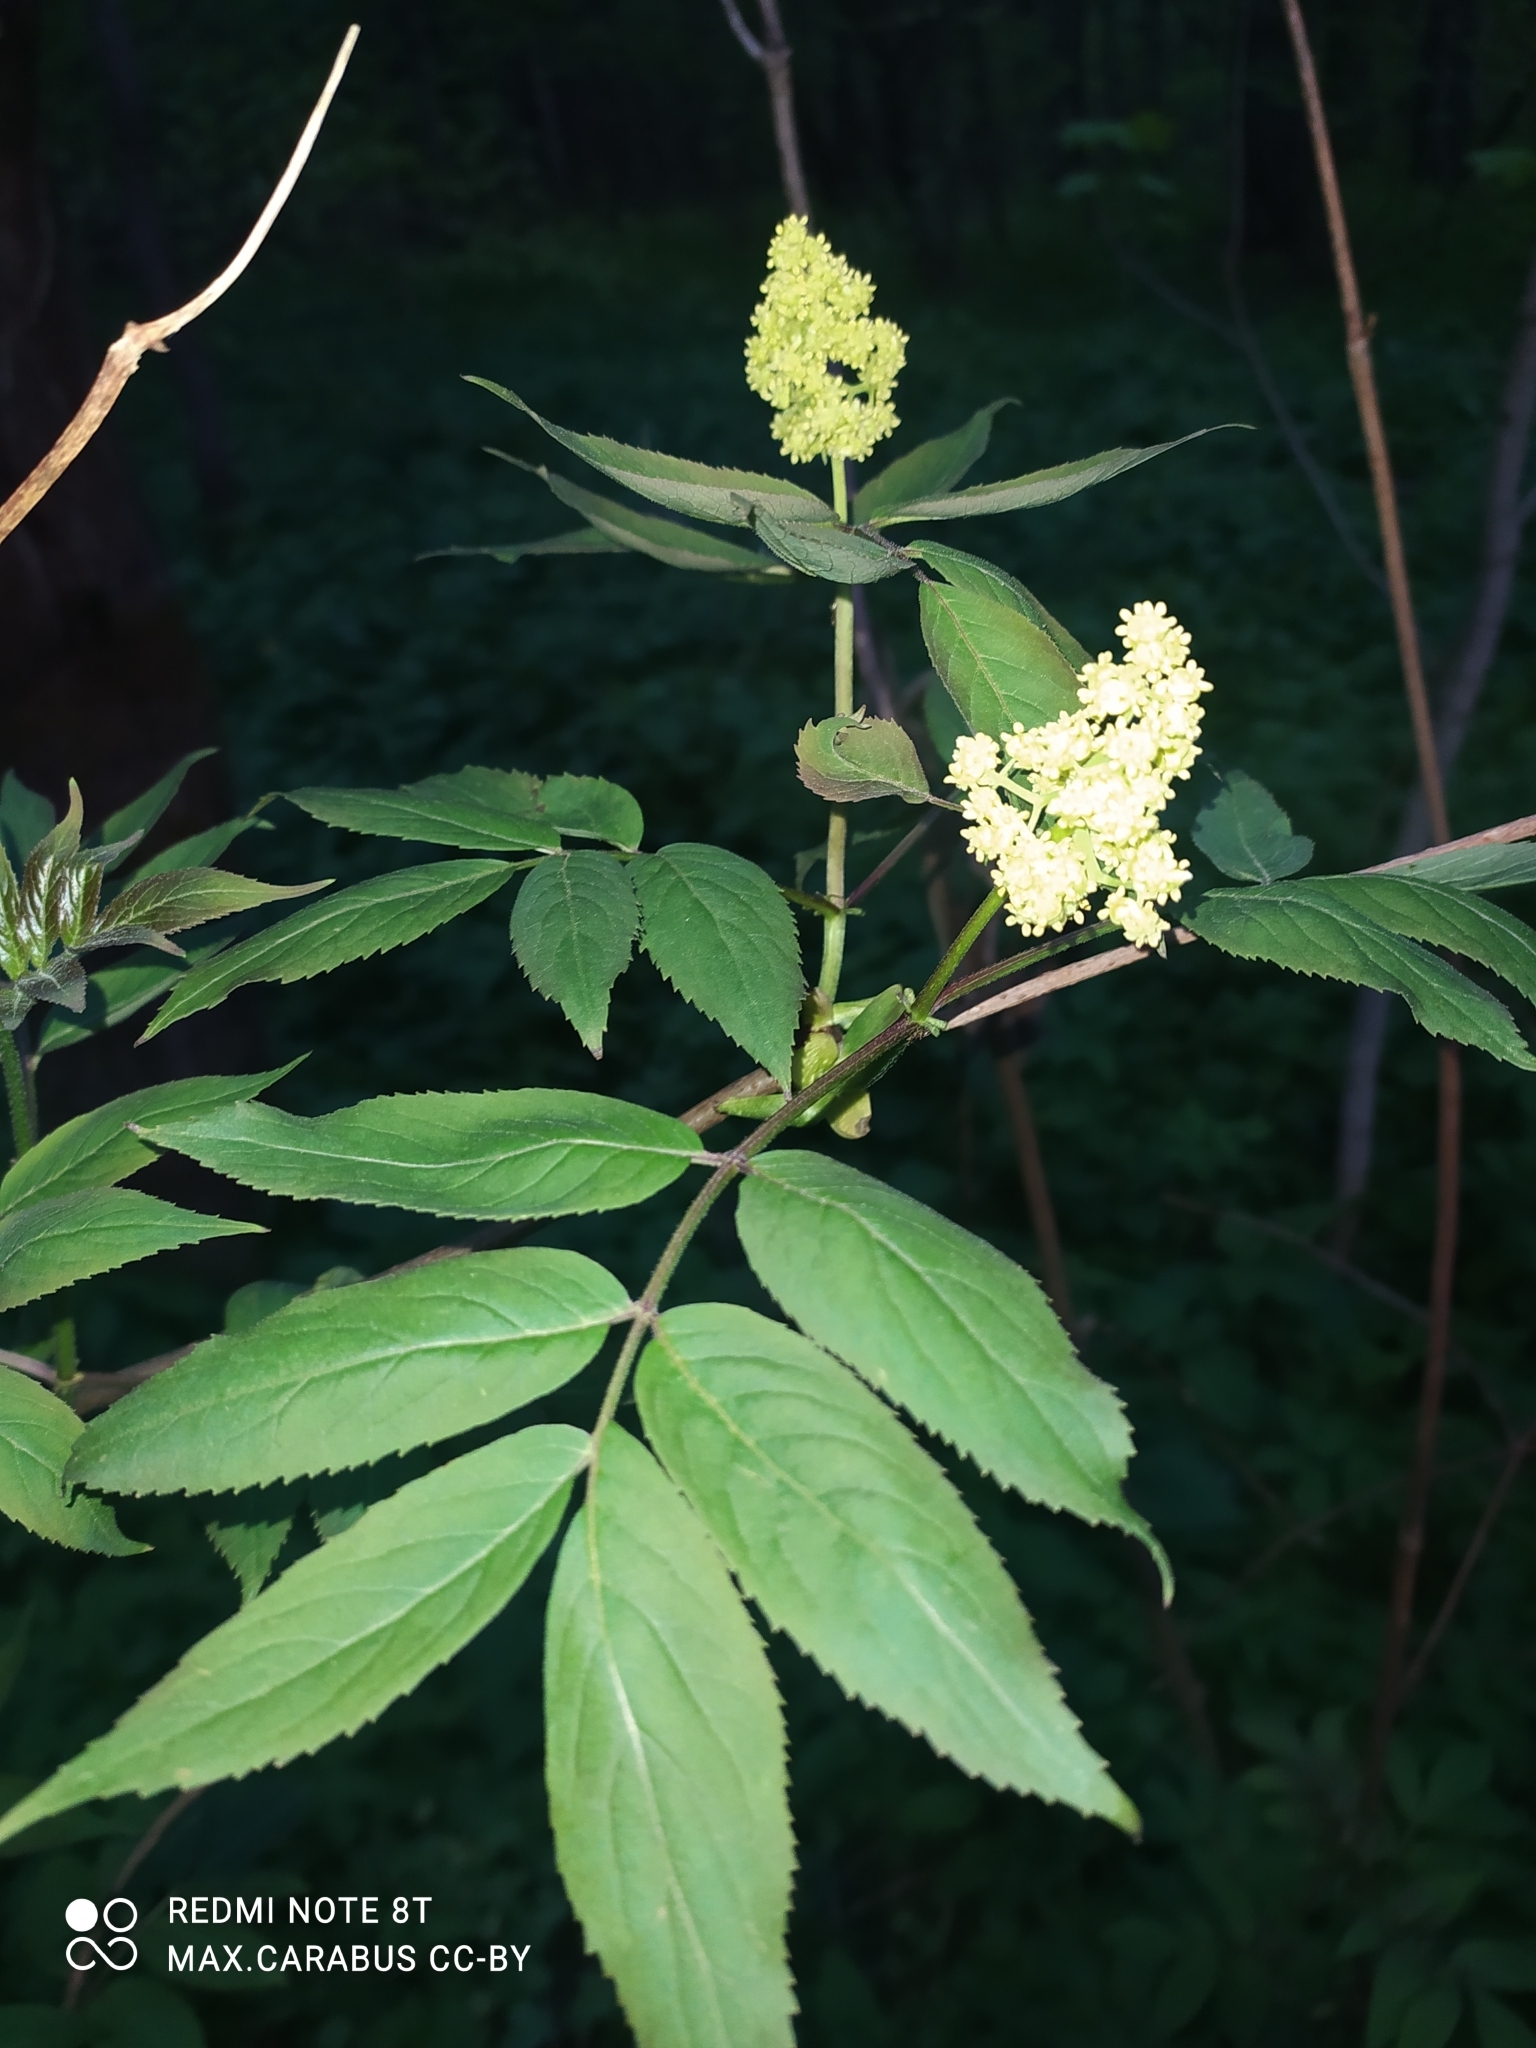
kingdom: Plantae
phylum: Tracheophyta
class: Magnoliopsida
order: Dipsacales
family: Viburnaceae
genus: Sambucus
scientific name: Sambucus racemosa
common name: Red-berried elder
